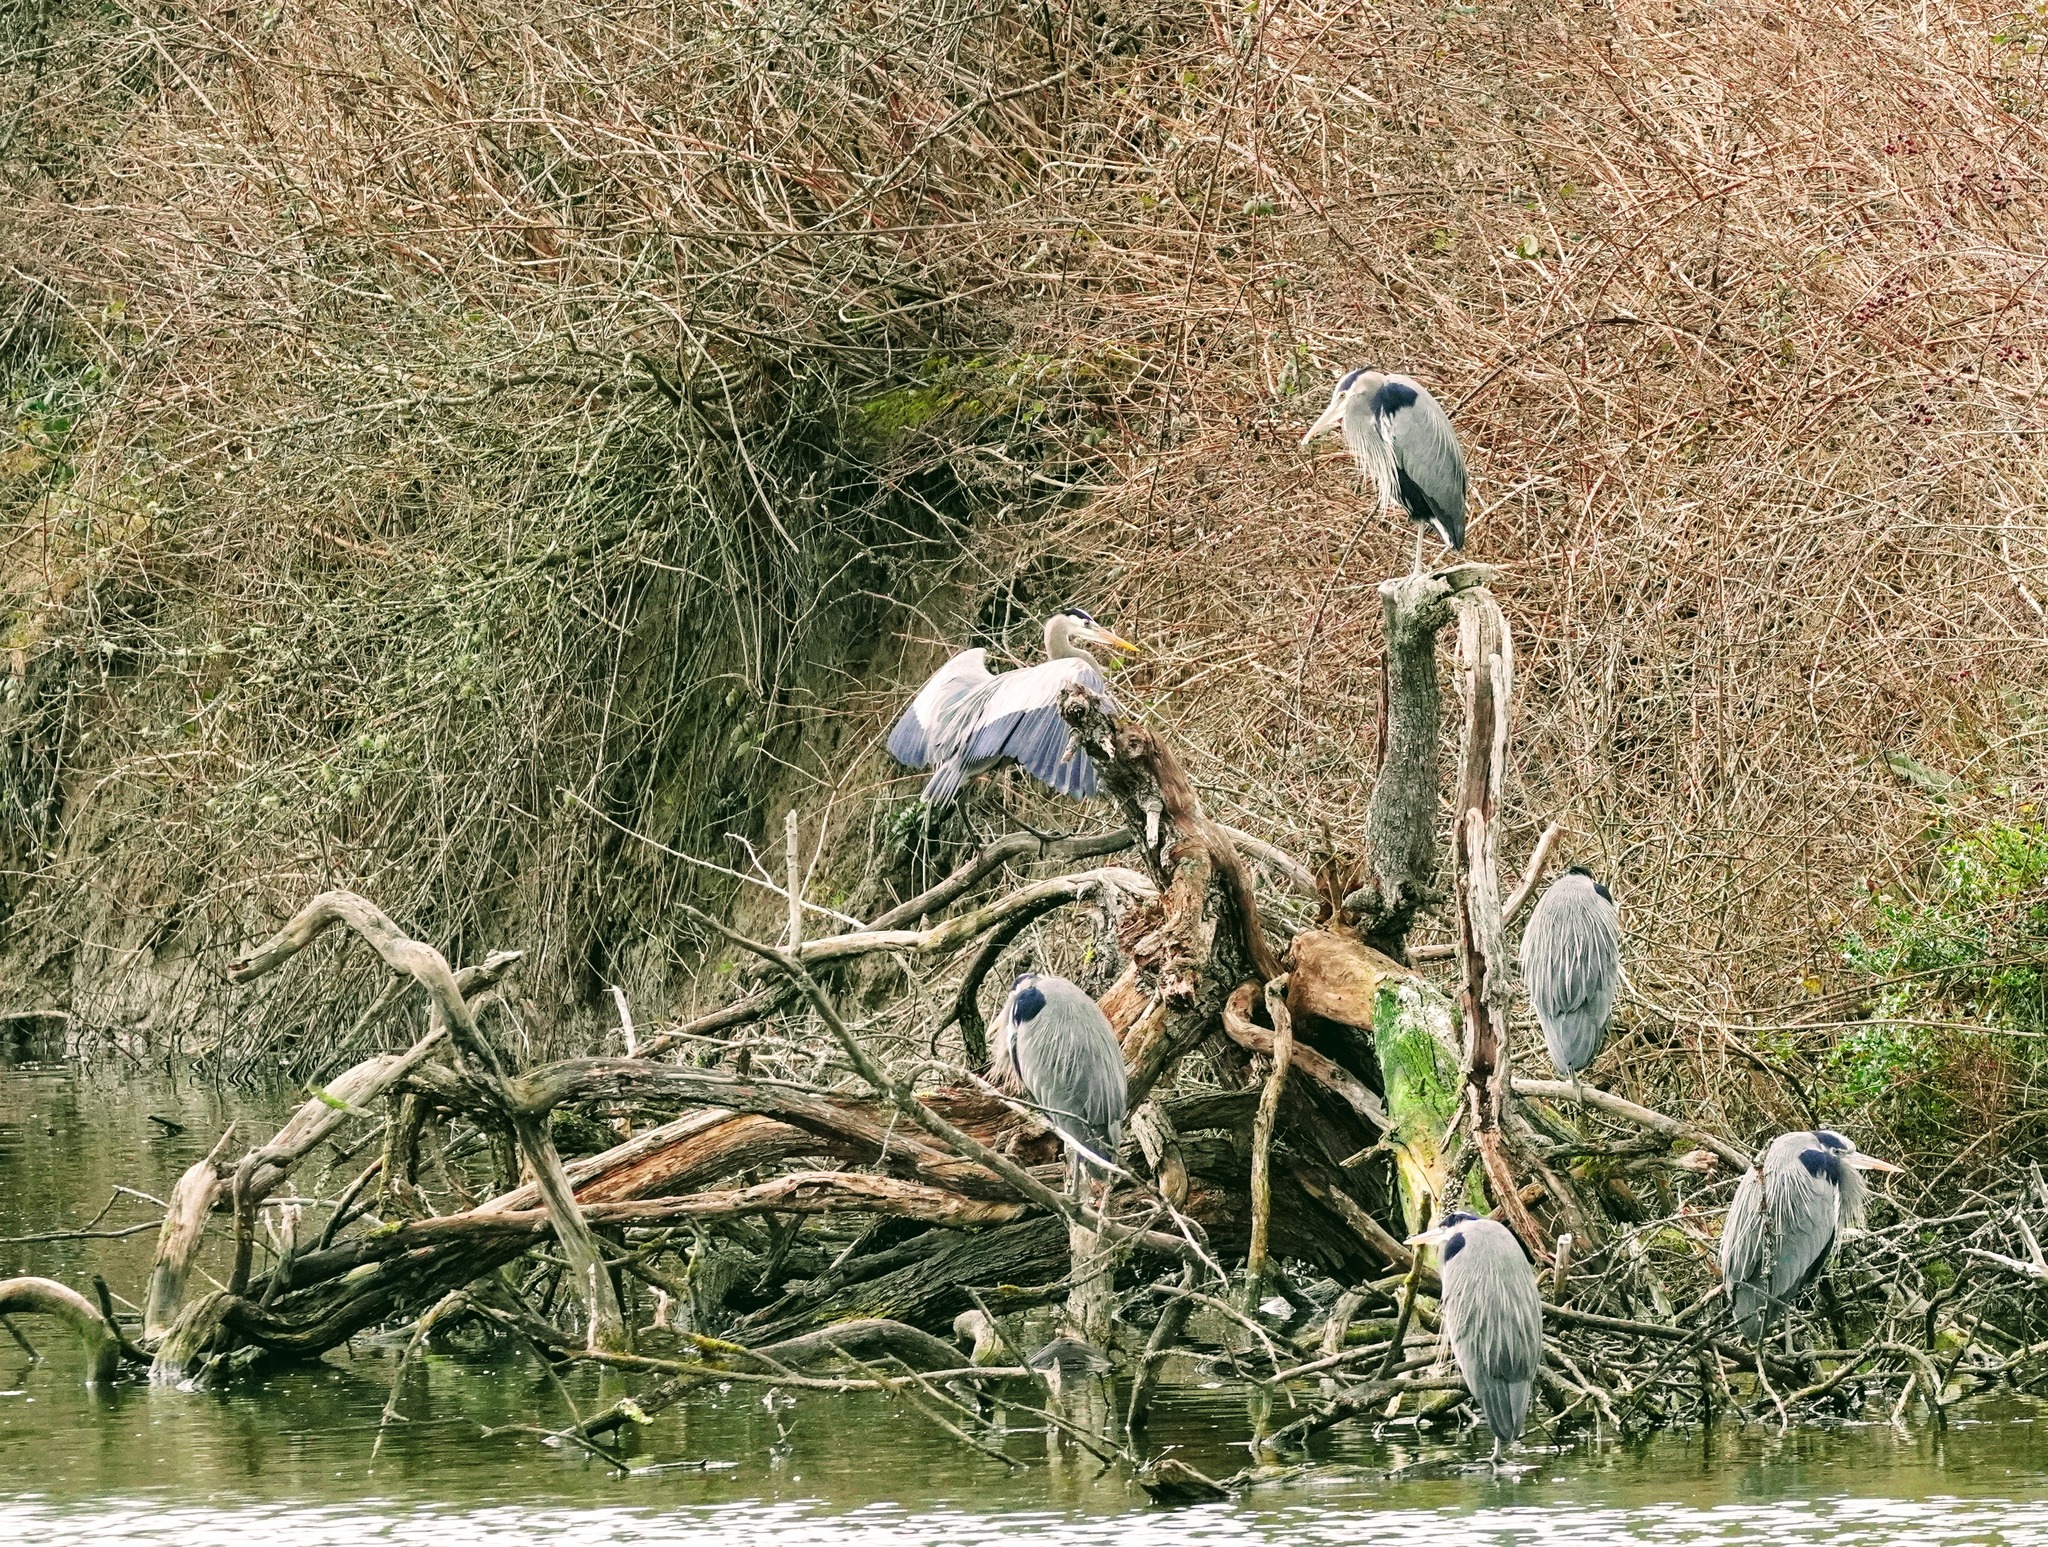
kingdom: Animalia
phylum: Chordata
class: Aves
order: Pelecaniformes
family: Ardeidae
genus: Ardea
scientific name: Ardea herodias
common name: Great blue heron
